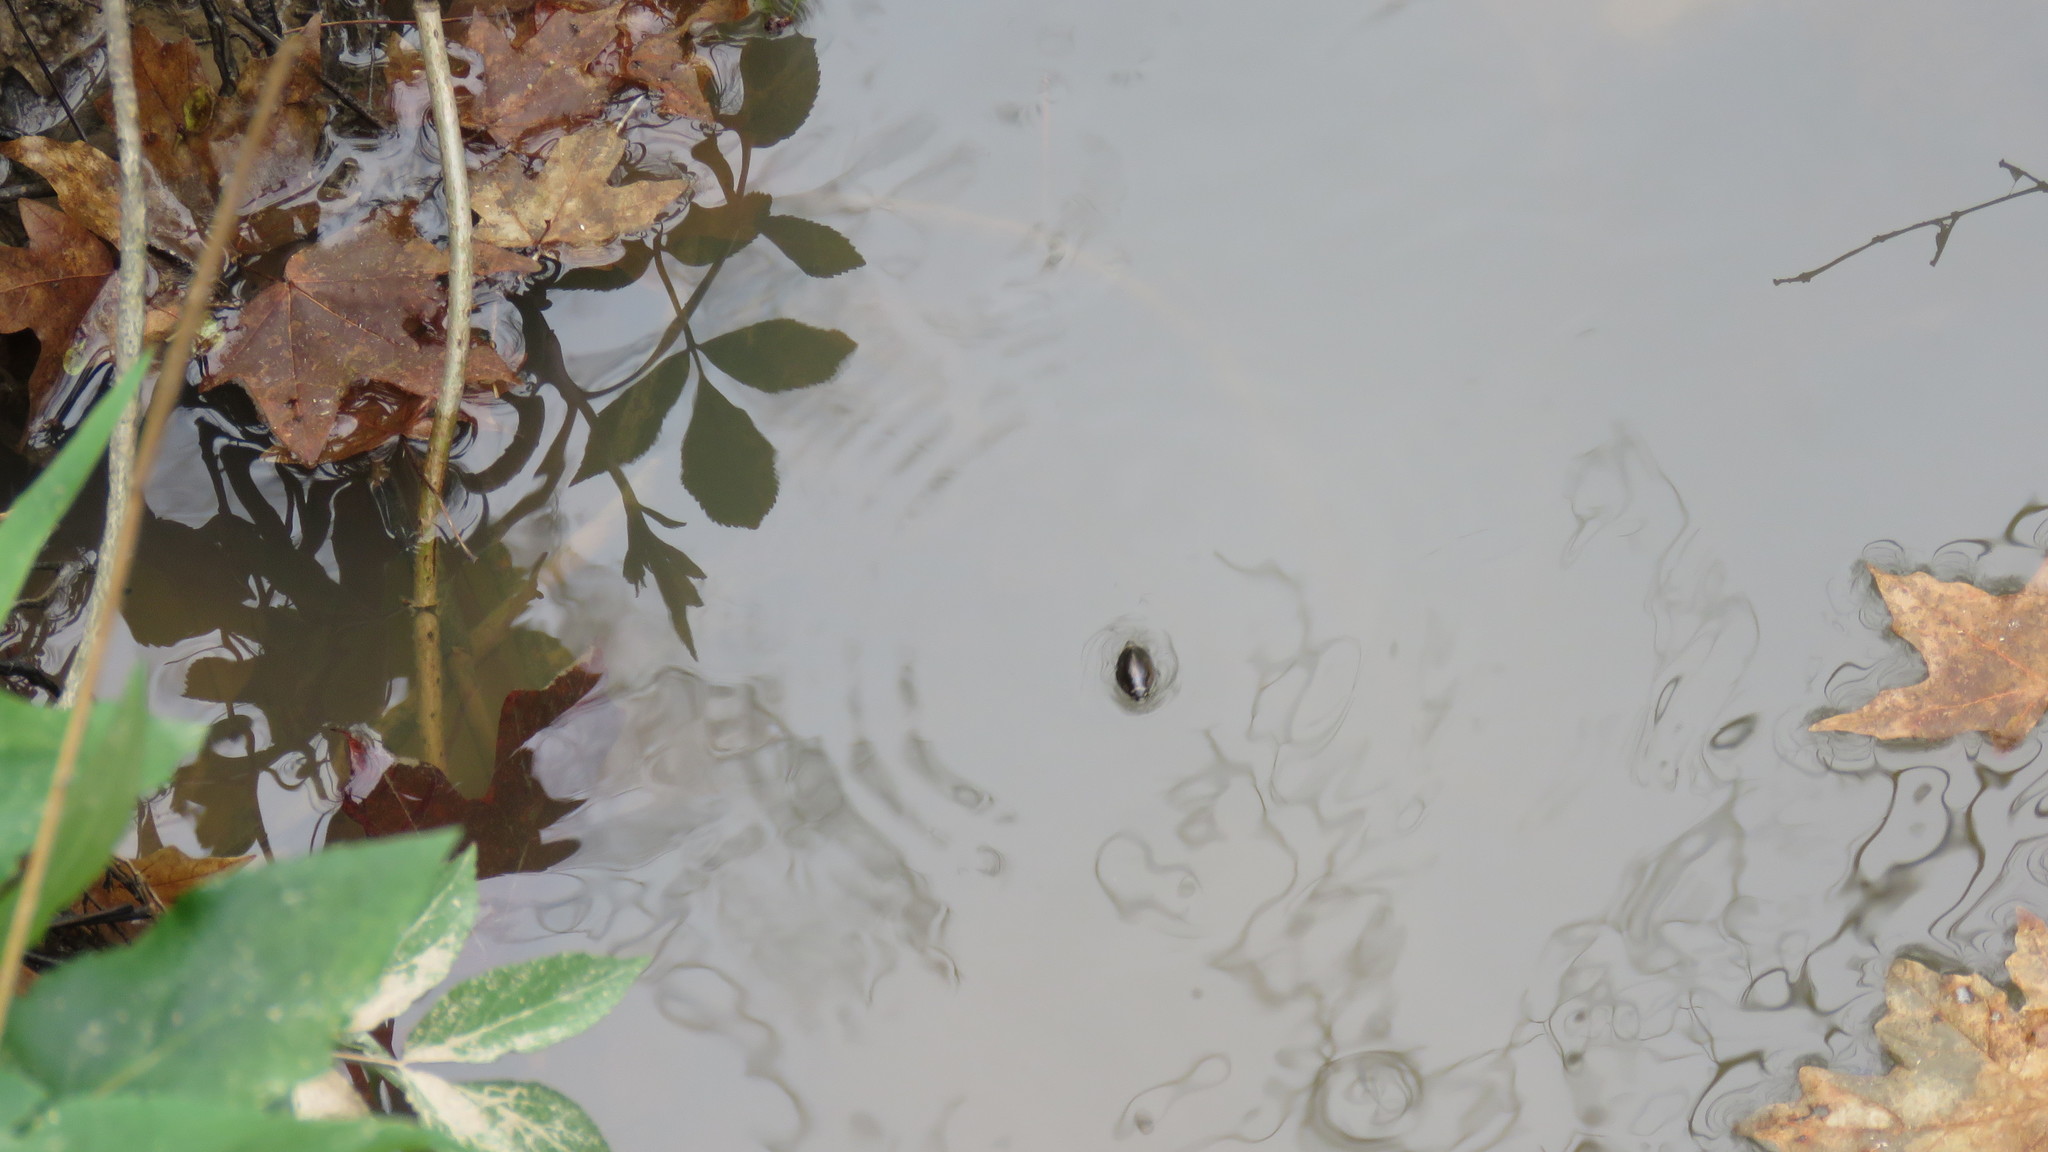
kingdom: Animalia
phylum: Arthropoda
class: Insecta
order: Coleoptera
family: Gyrinidae
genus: Dineutus
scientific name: Dineutus ciliatus
